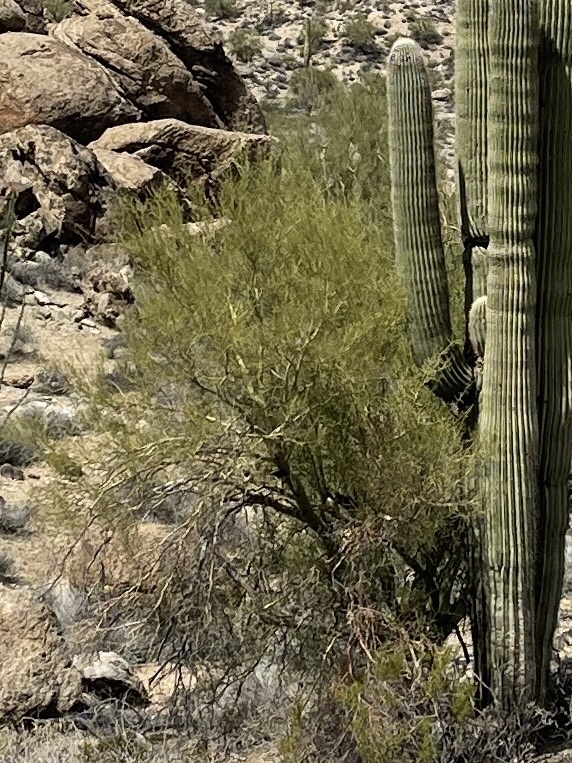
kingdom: Plantae
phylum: Tracheophyta
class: Magnoliopsida
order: Fabales
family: Fabaceae
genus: Parkinsonia
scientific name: Parkinsonia microphylla
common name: Yellow paloverde
